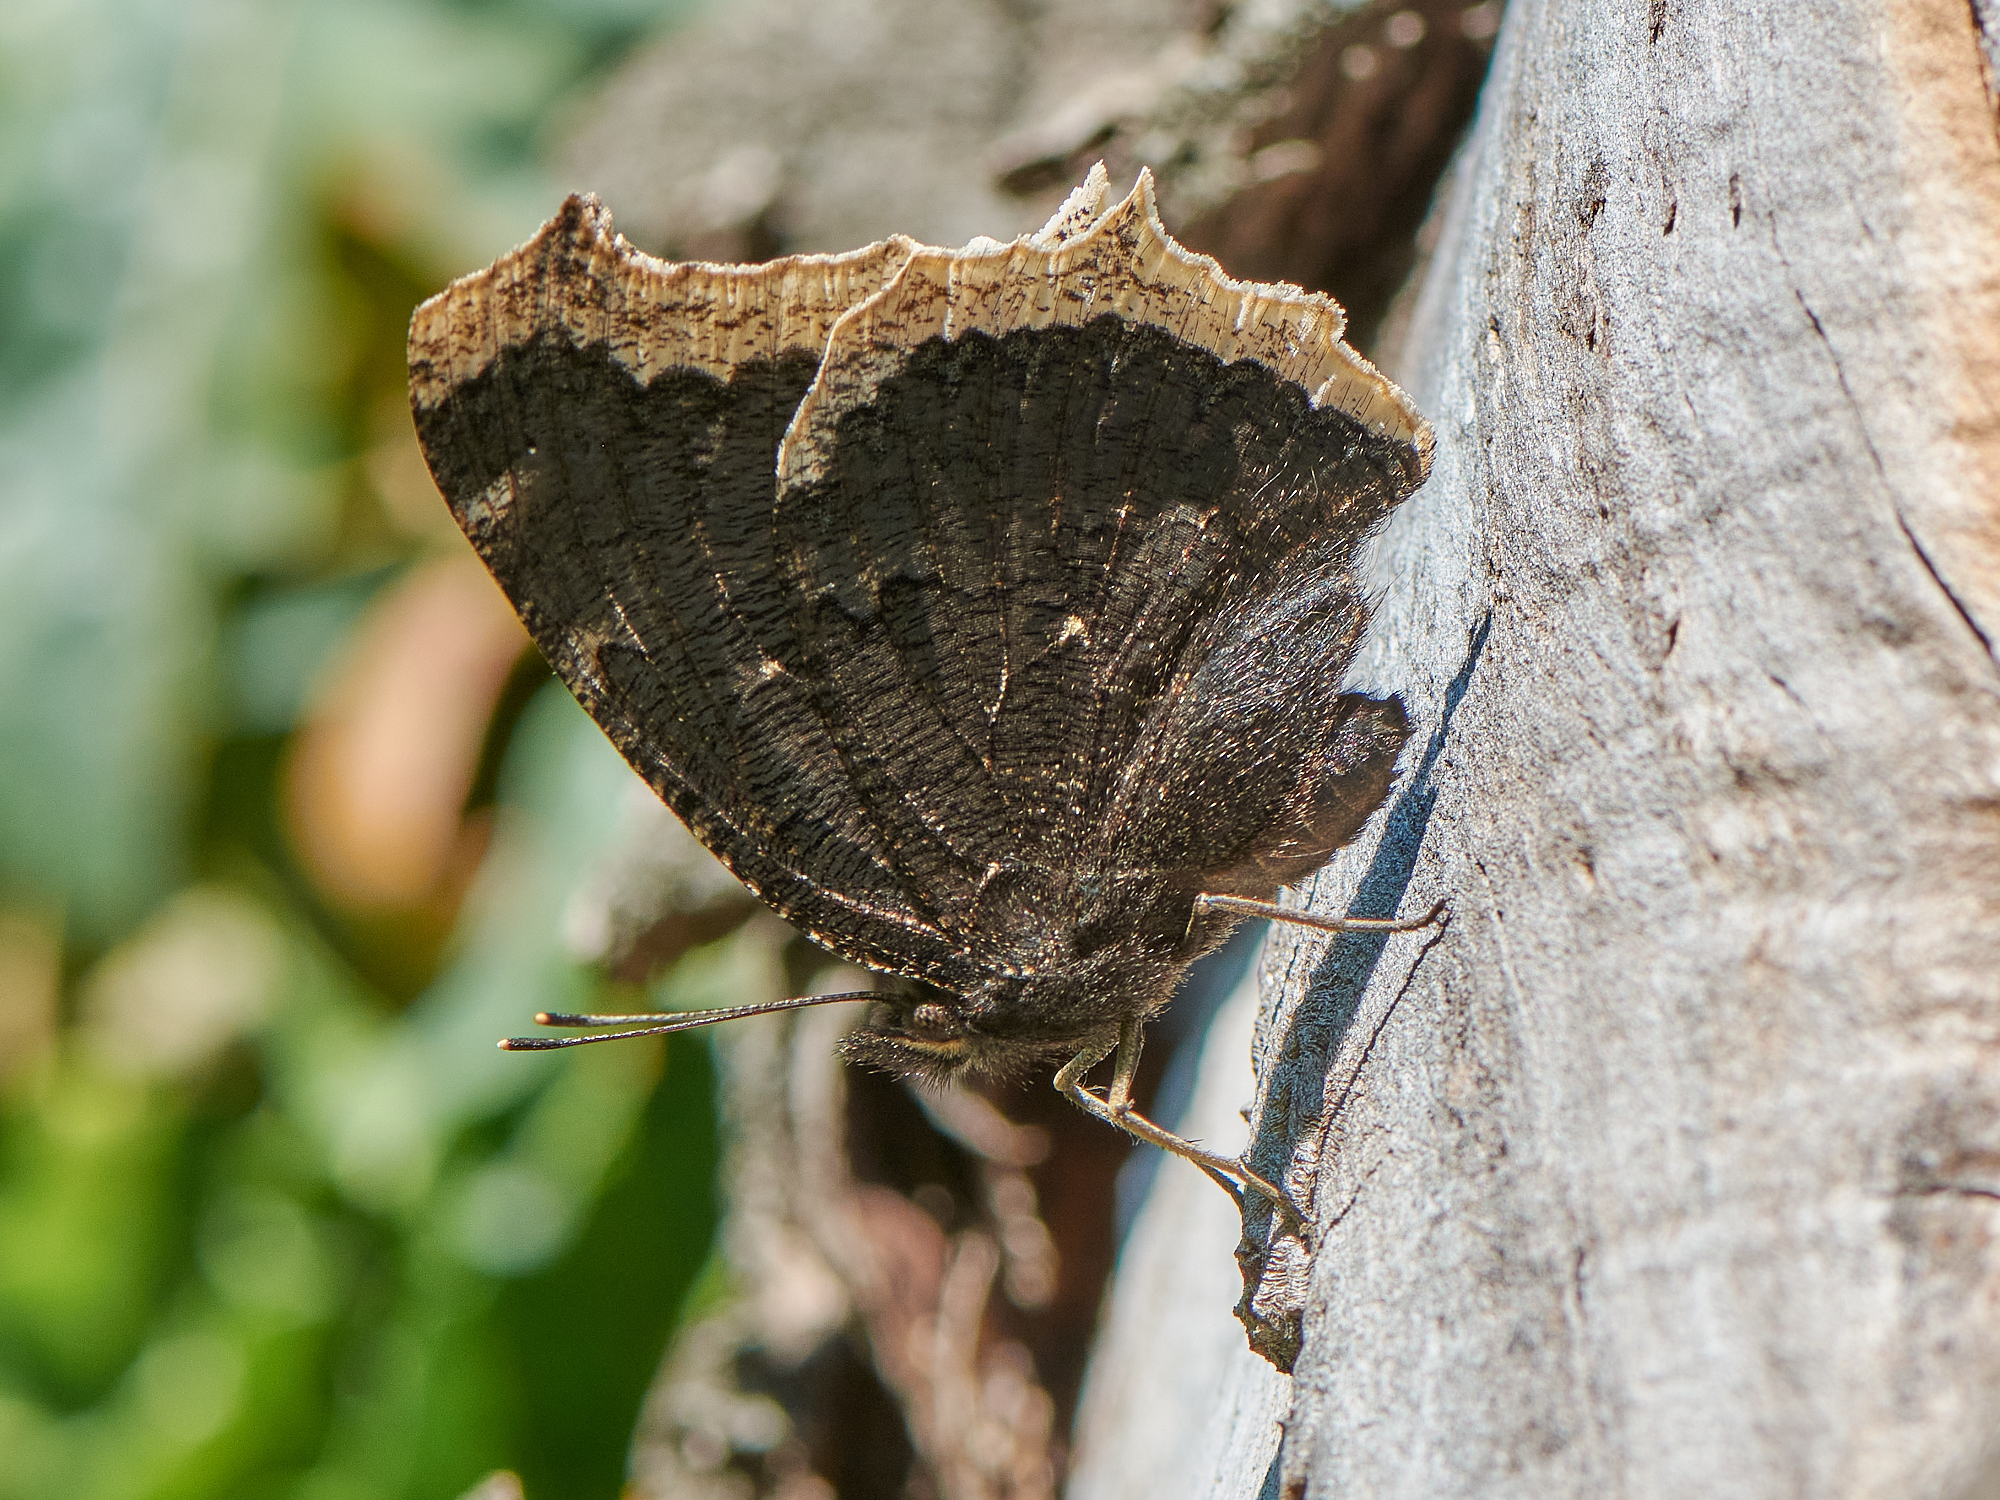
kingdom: Animalia
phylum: Arthropoda
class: Insecta
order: Lepidoptera
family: Nymphalidae
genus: Nymphalis
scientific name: Nymphalis antiopa
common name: Camberwell beauty
